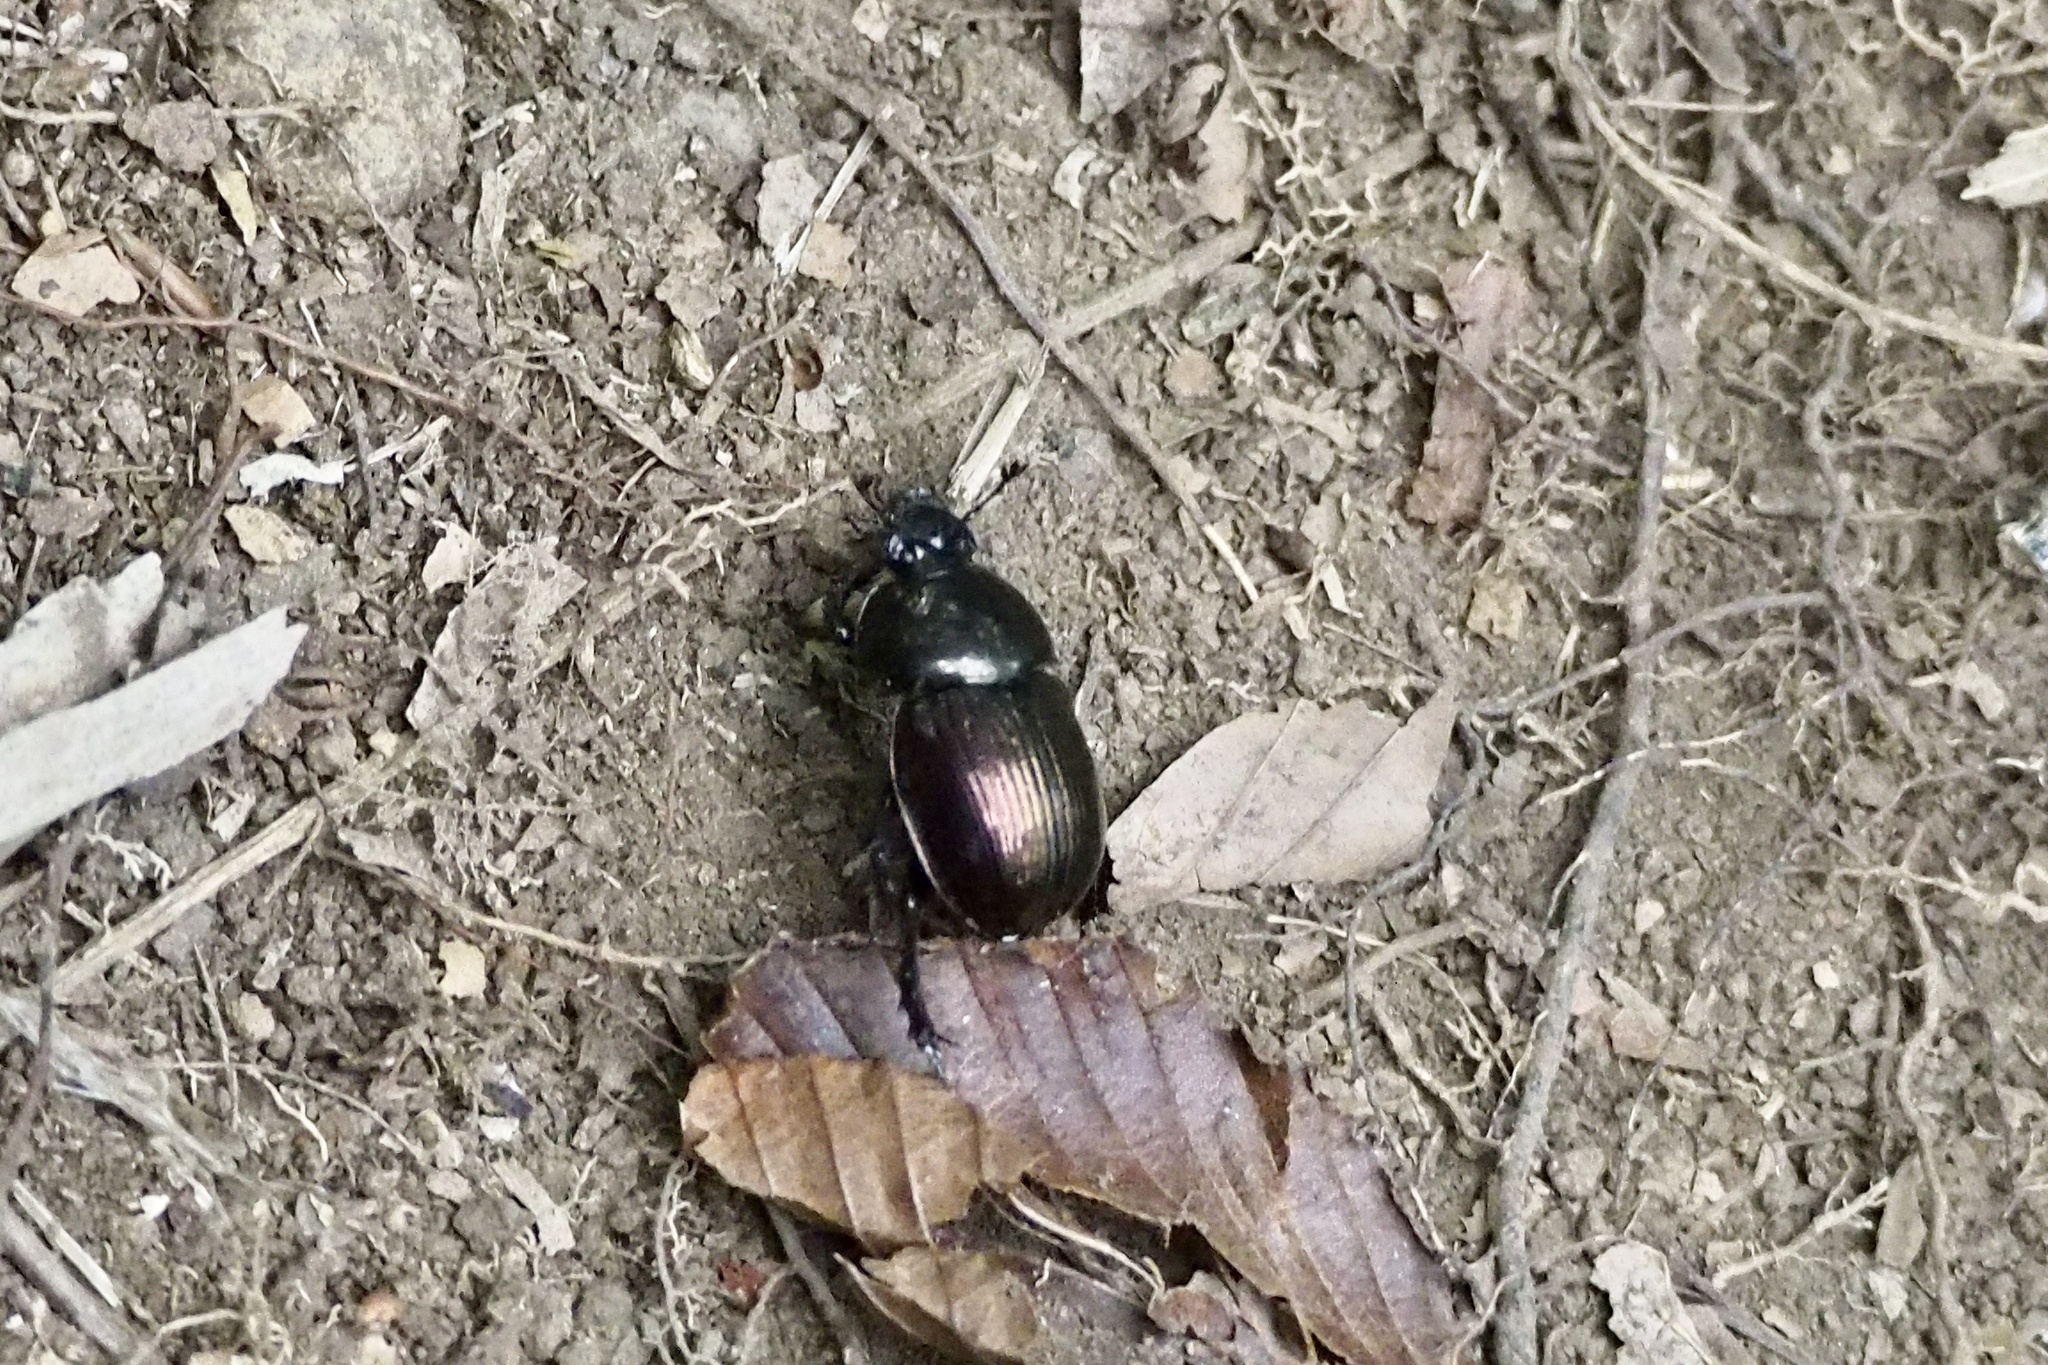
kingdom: Animalia
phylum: Arthropoda
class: Insecta
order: Coleoptera
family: Geotrupidae
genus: Phelotrupes
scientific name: Phelotrupes laevistriatus
